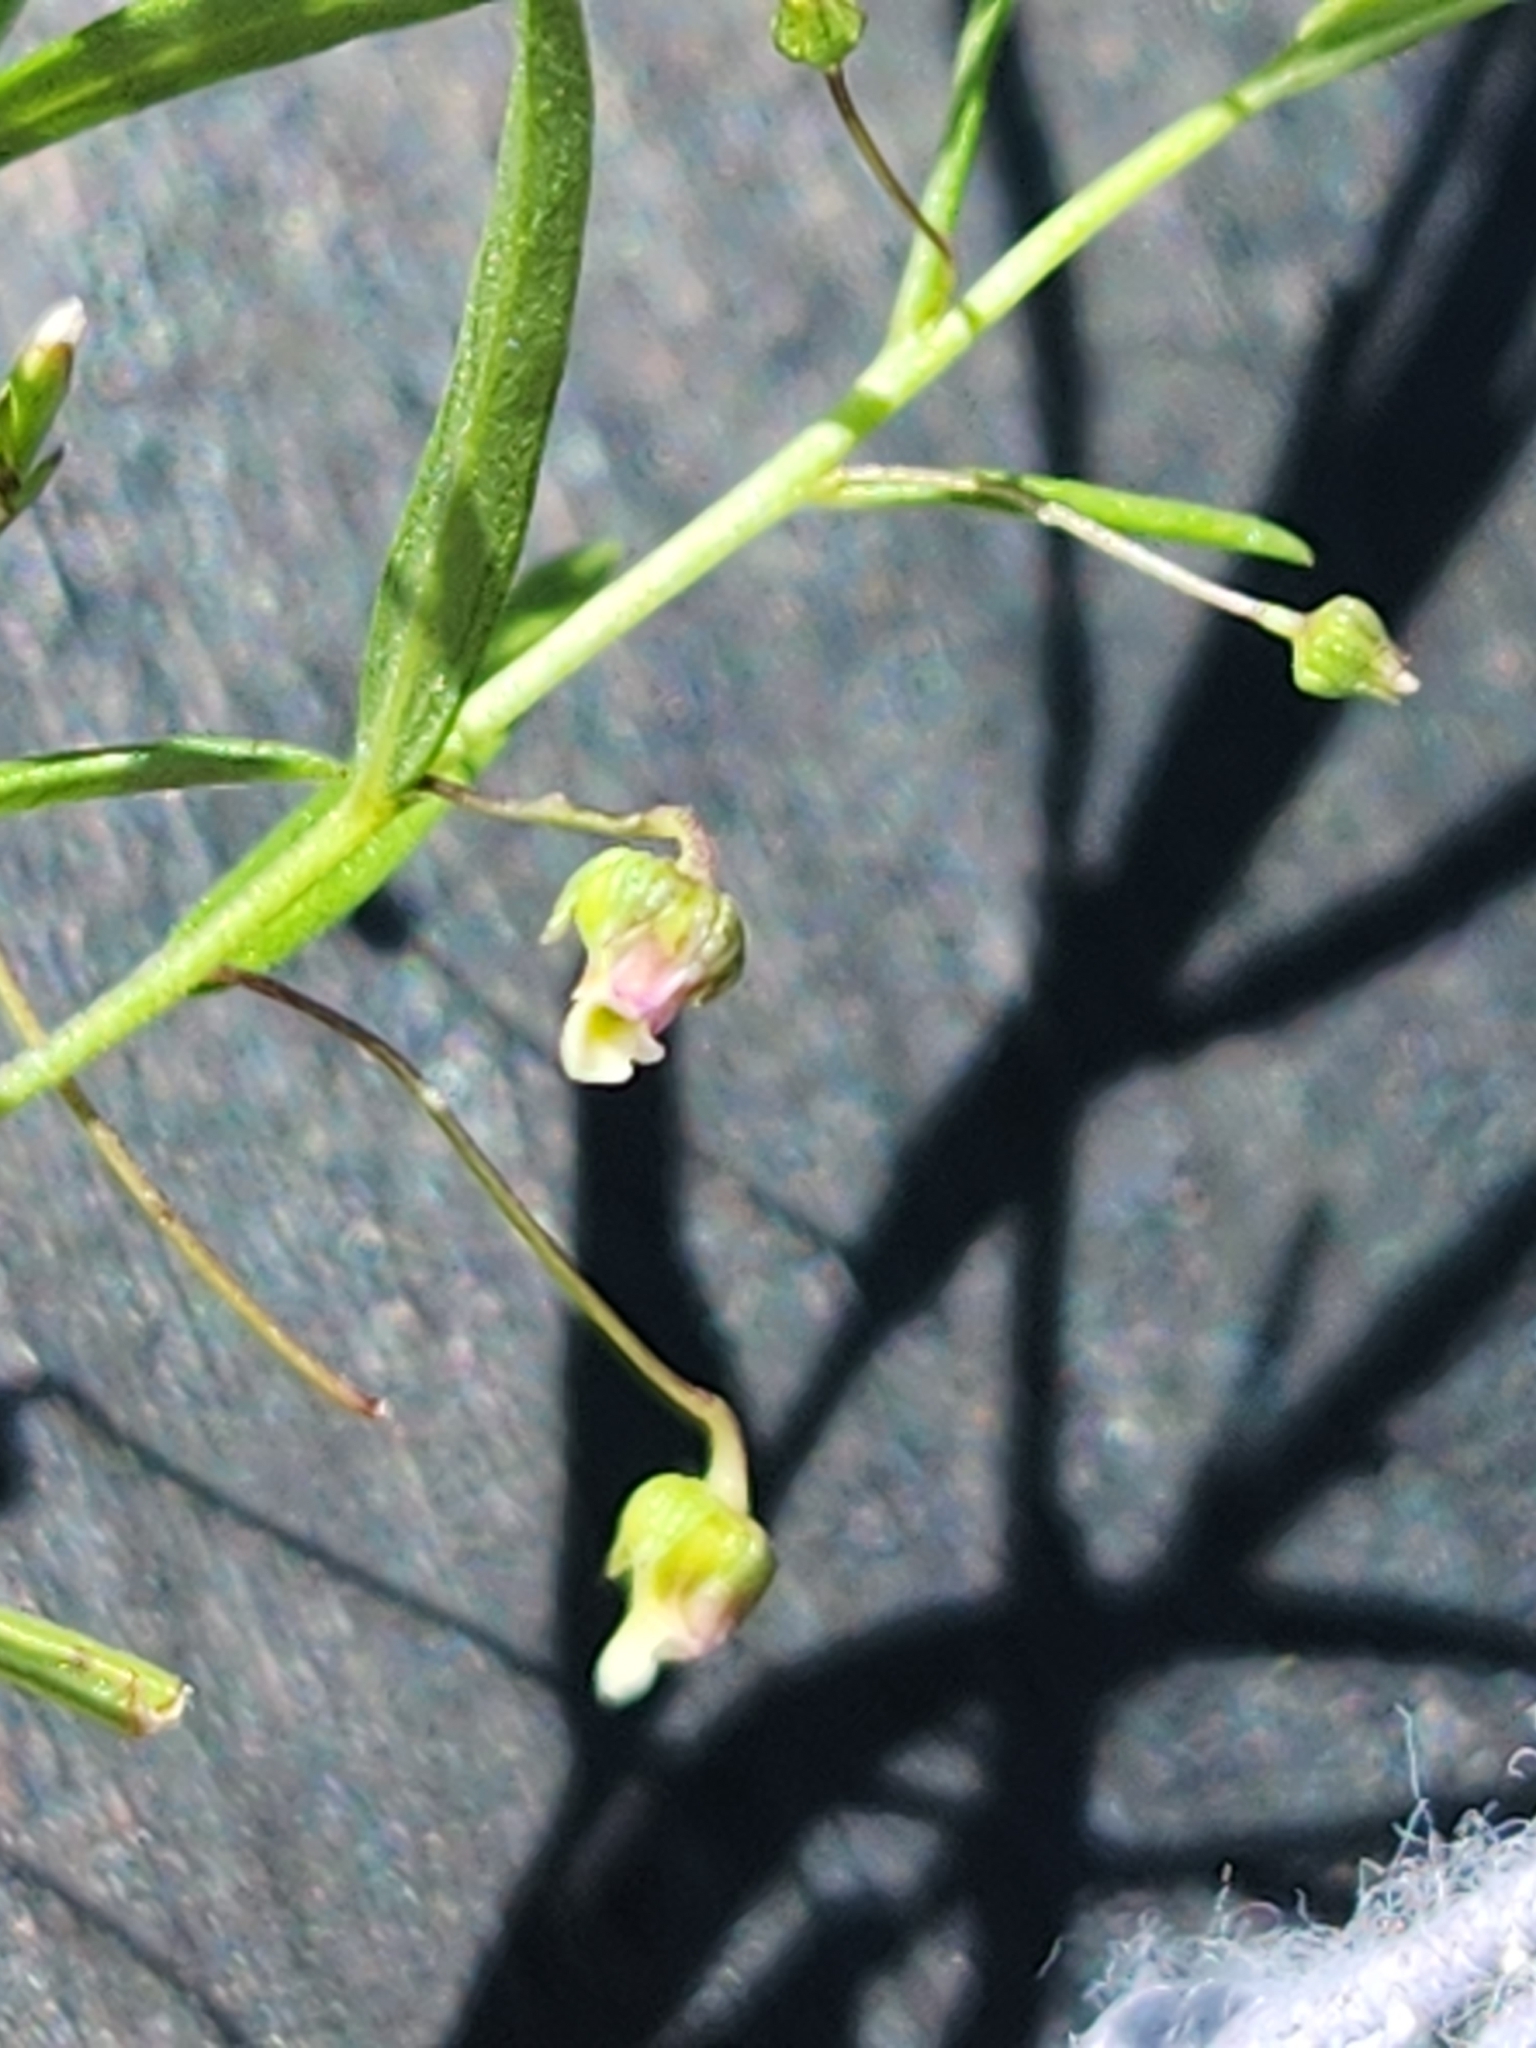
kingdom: Plantae
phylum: Tracheophyta
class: Magnoliopsida
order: Malpighiales
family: Violaceae
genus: Pombalia
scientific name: Pombalia verticillata
